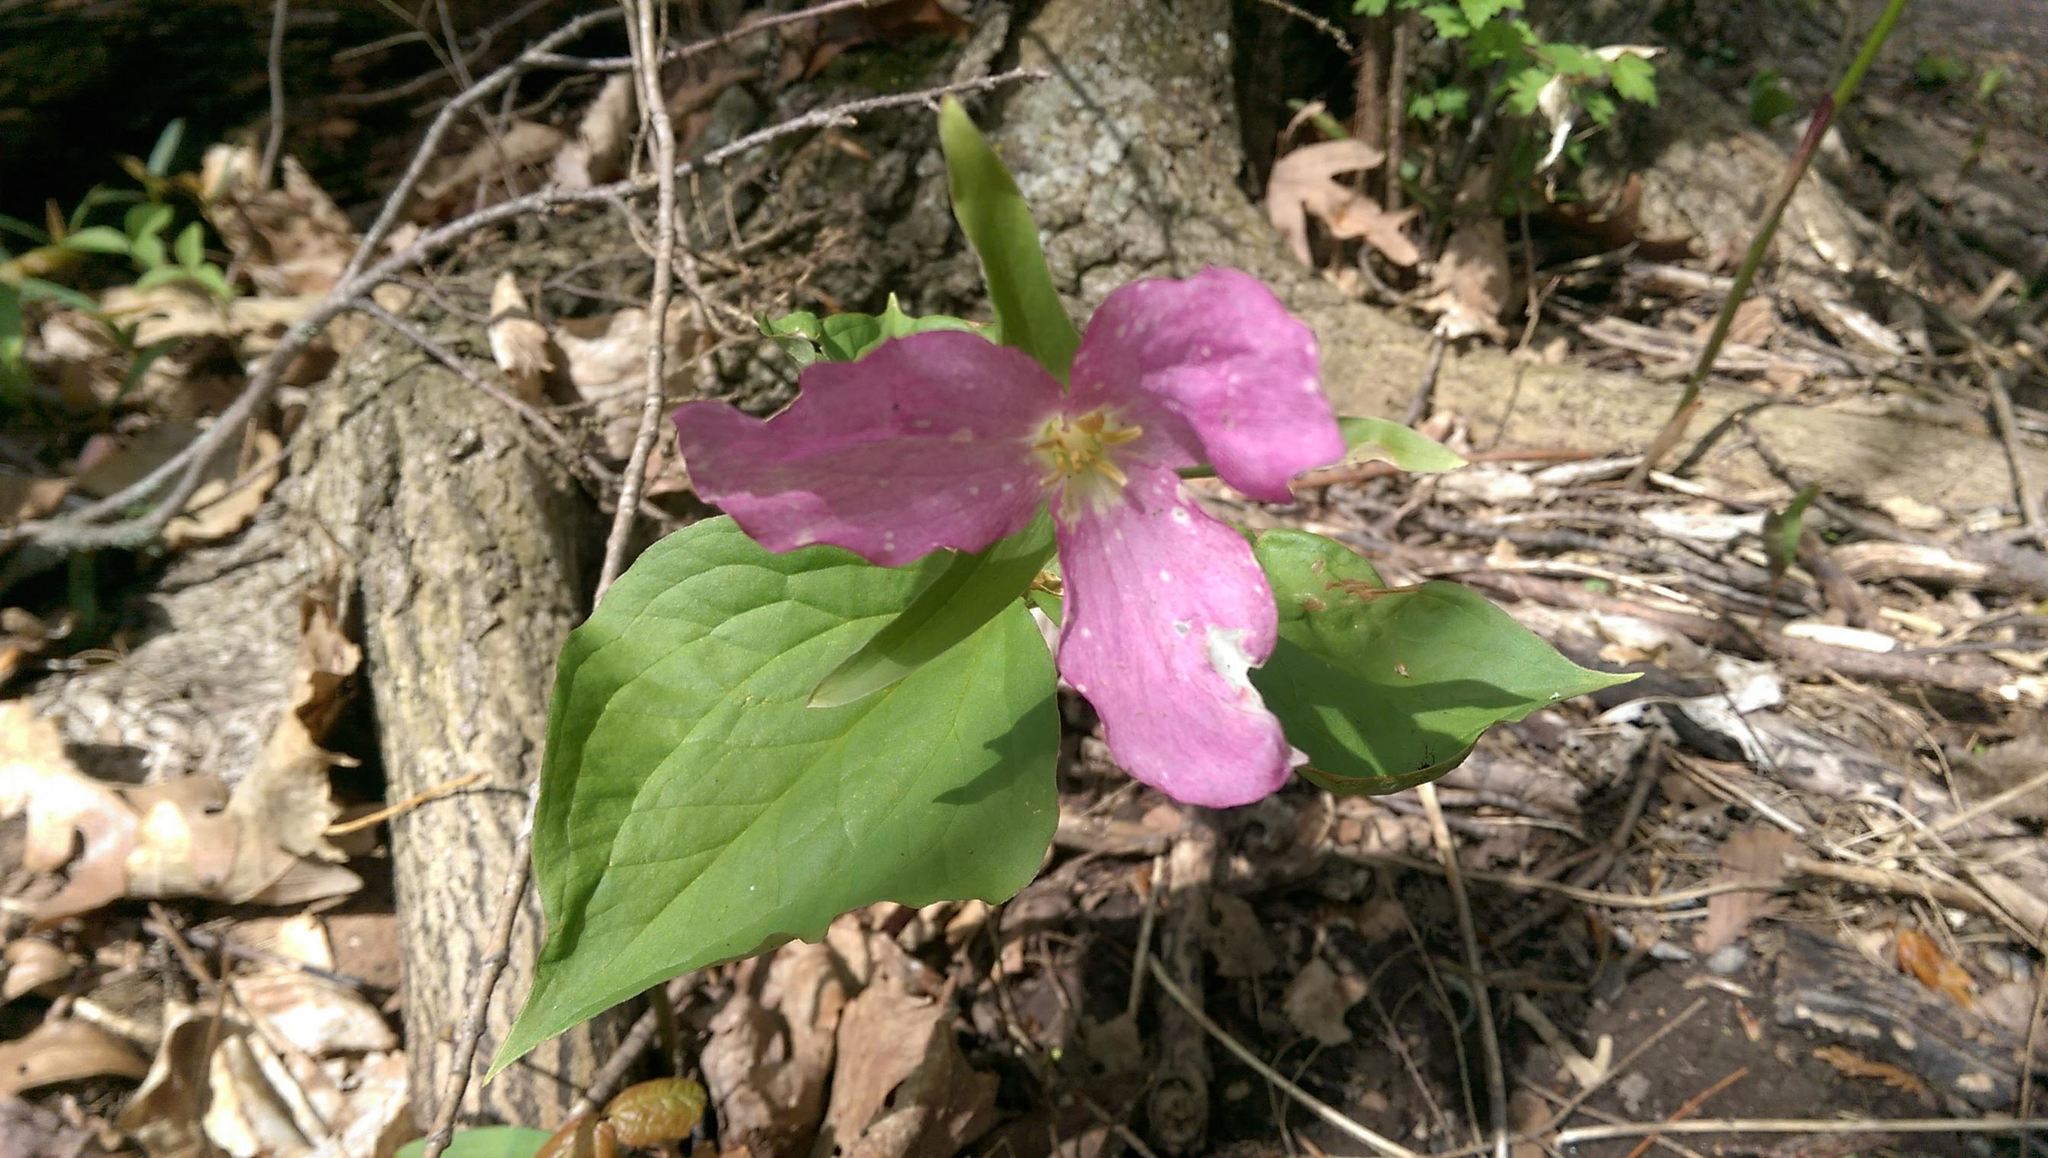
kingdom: Plantae
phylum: Tracheophyta
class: Liliopsida
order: Liliales
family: Melanthiaceae
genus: Trillium
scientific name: Trillium grandiflorum
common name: Great white trillium
